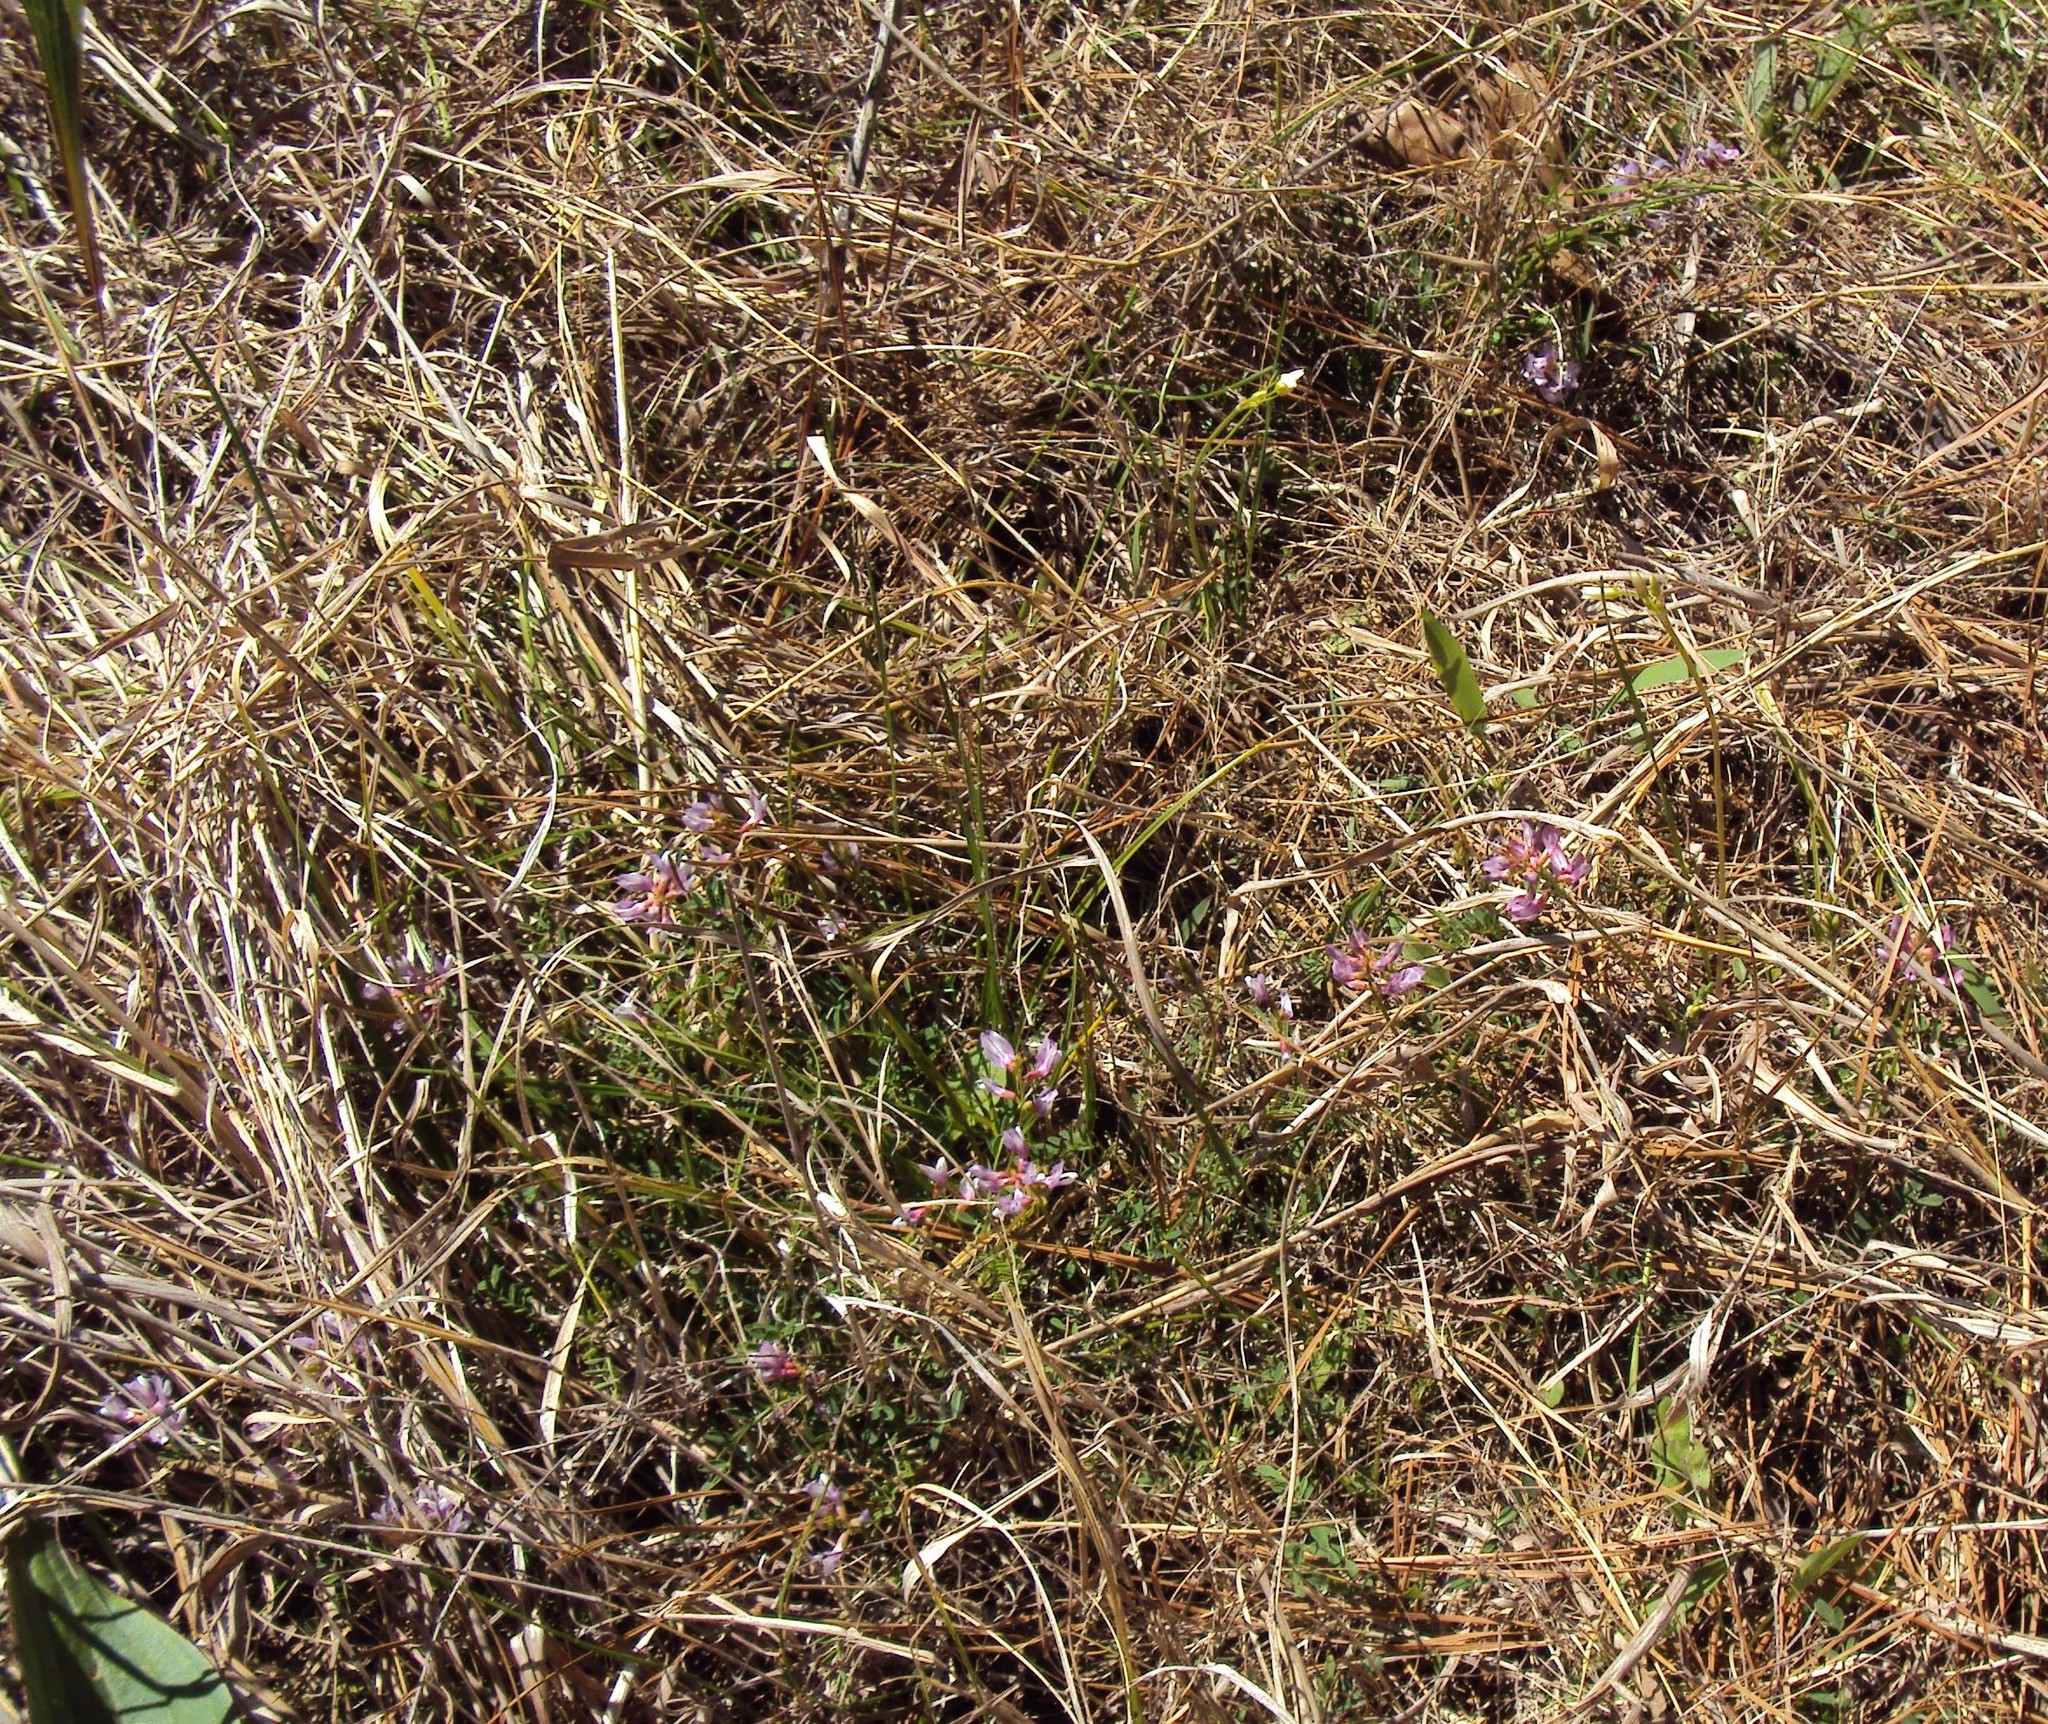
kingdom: Plantae
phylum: Tracheophyta
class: Magnoliopsida
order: Fabales
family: Fabaceae
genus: Astragalus
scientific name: Astragalus distortus
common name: Ozark milk-vetch
